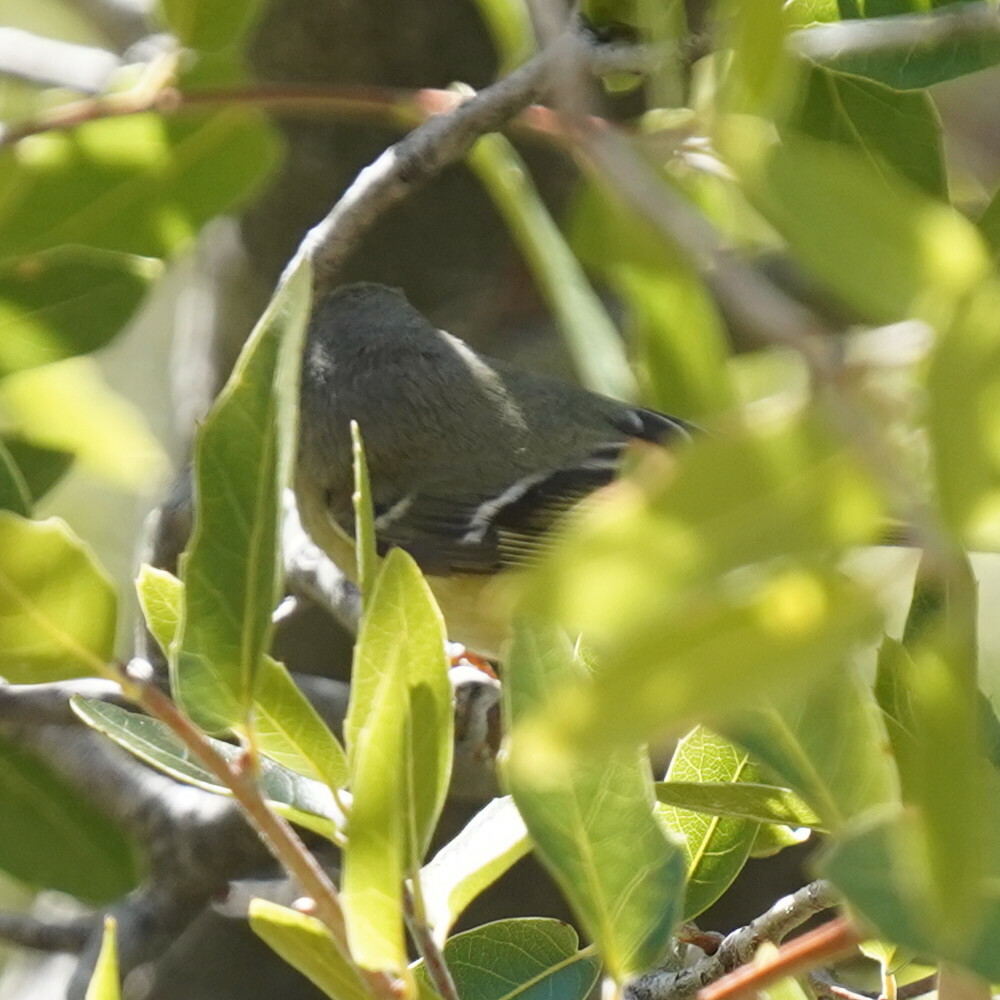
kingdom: Animalia
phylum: Chordata
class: Aves
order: Passeriformes
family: Regulidae
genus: Regulus
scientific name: Regulus calendula
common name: Ruby-crowned kinglet
